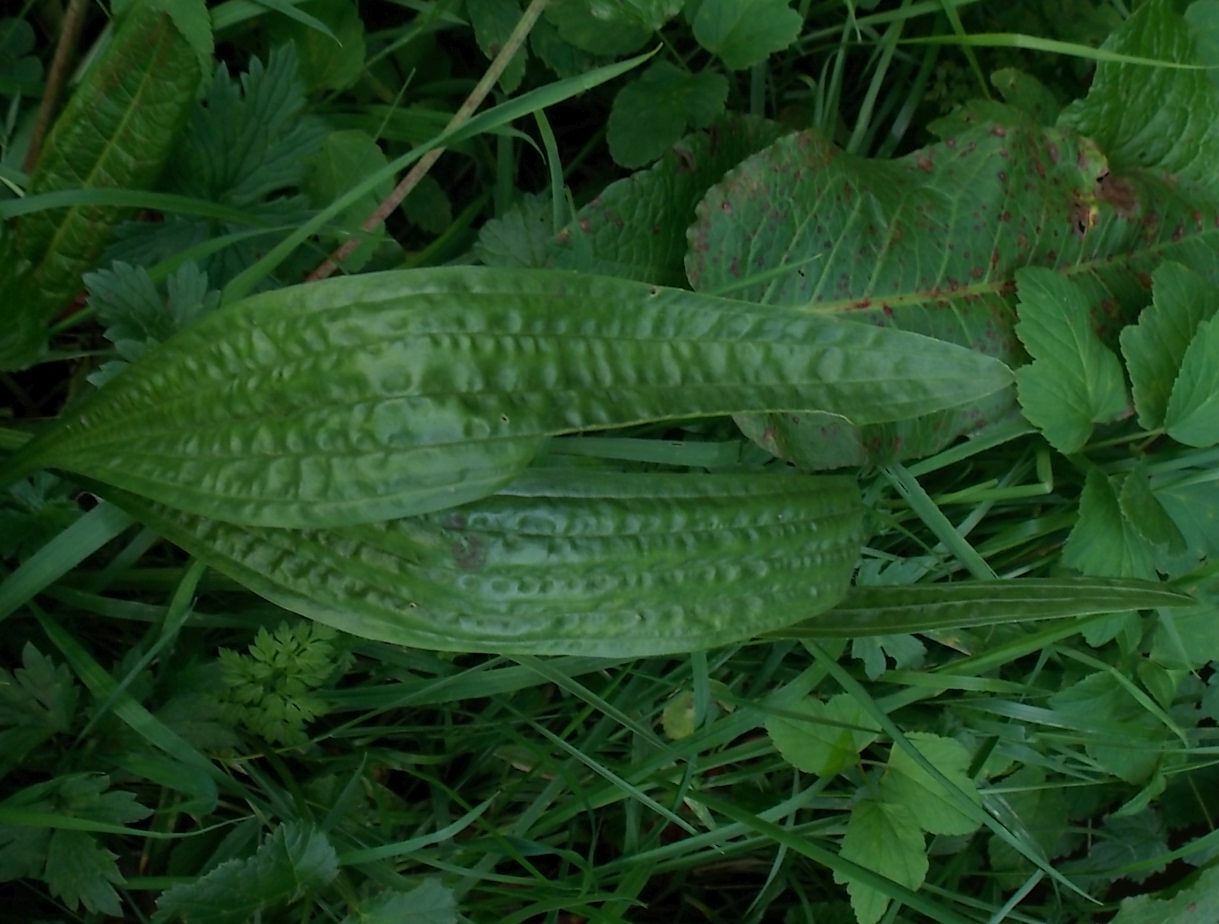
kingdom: Plantae
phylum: Tracheophyta
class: Magnoliopsida
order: Lamiales
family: Plantaginaceae
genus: Plantago
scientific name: Plantago lanceolata
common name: Ribwort plantain
